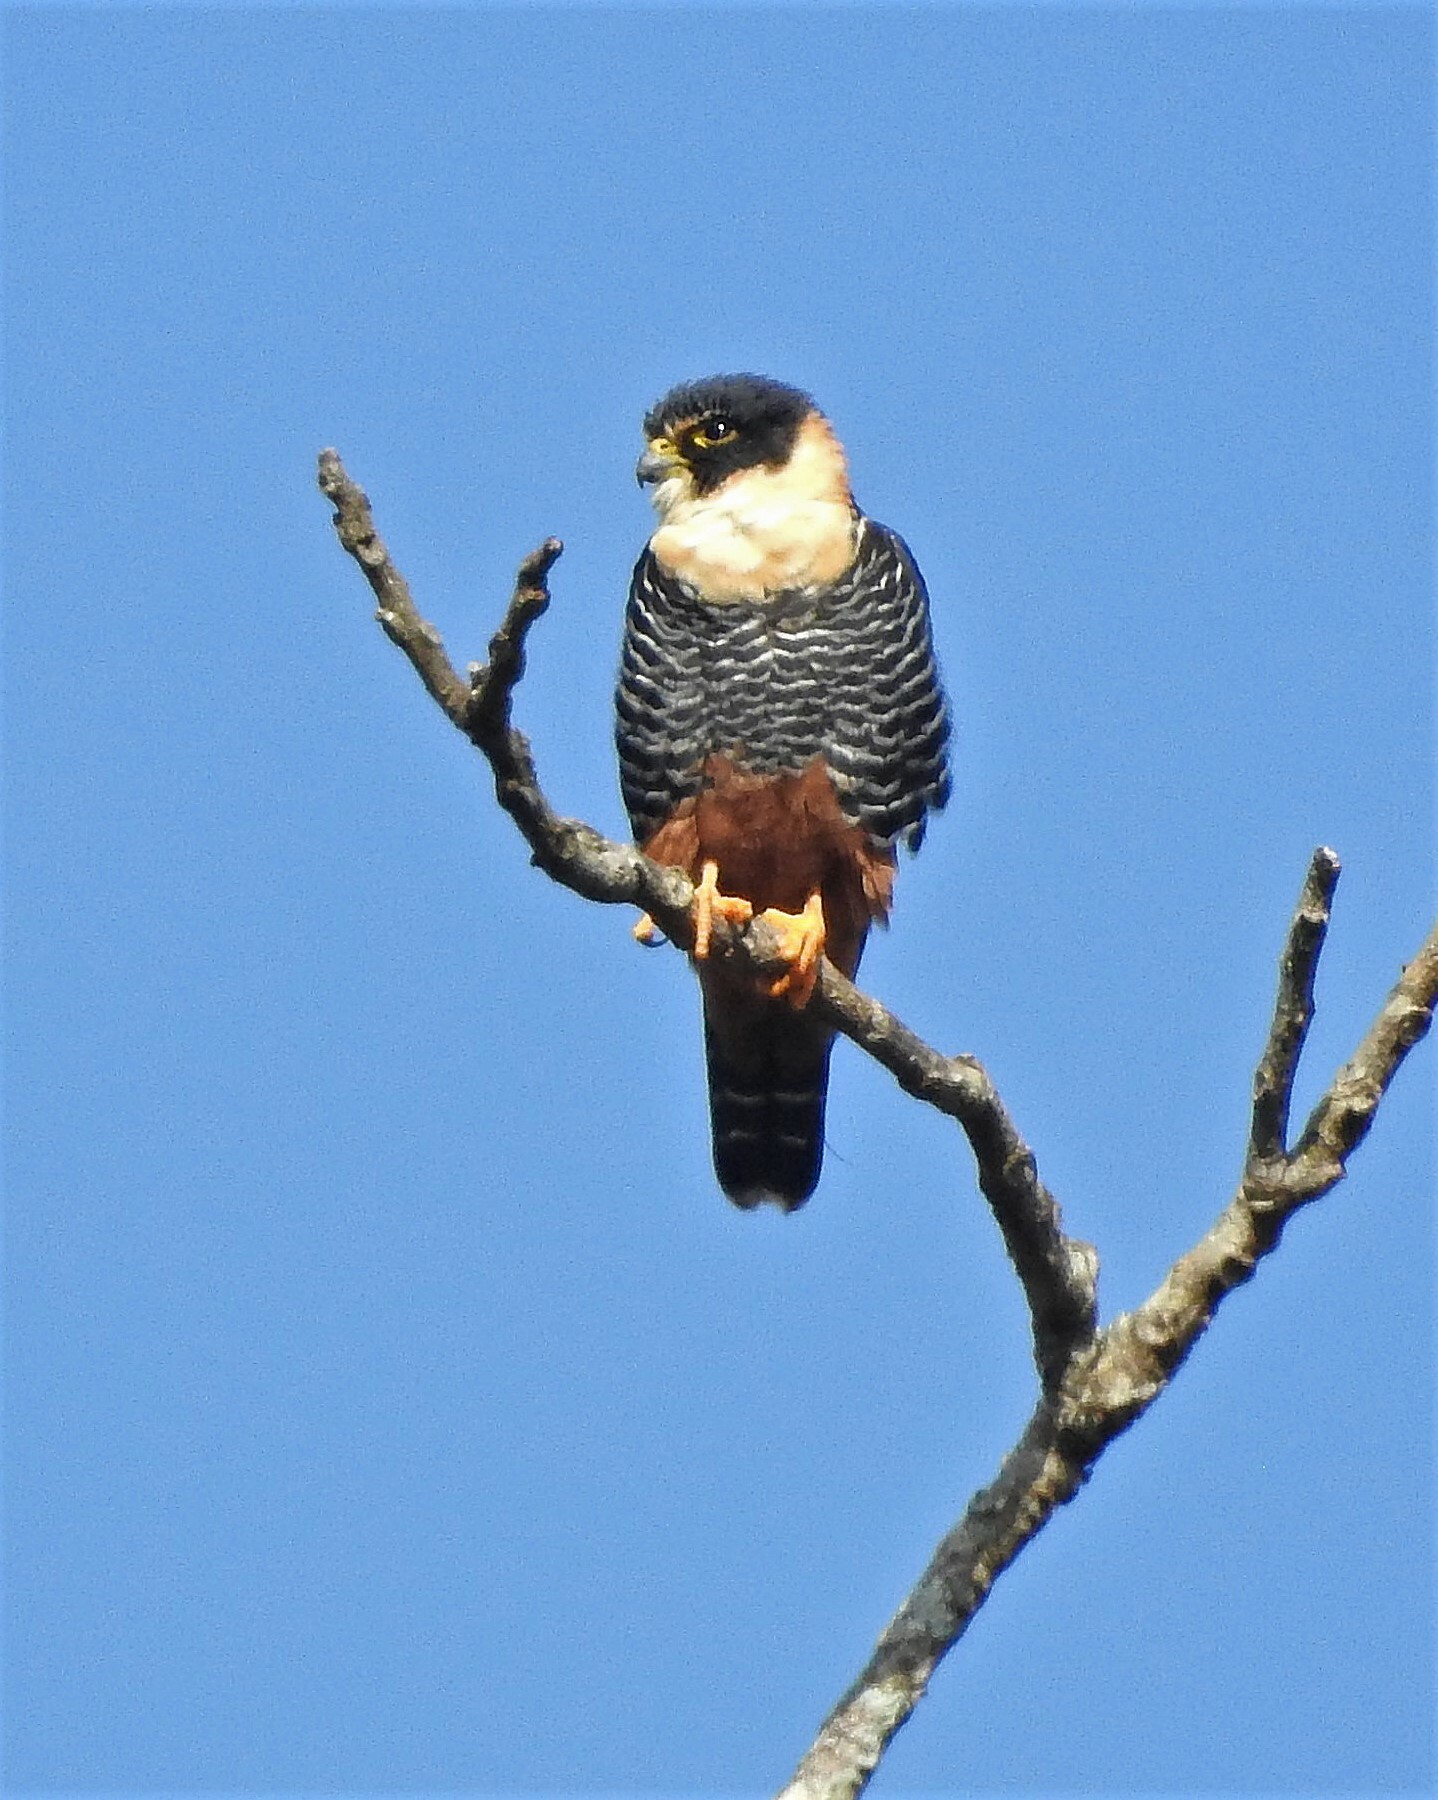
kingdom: Animalia
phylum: Chordata
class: Aves
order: Falconiformes
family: Falconidae
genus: Falco
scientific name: Falco rufigularis
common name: Bat falcon
